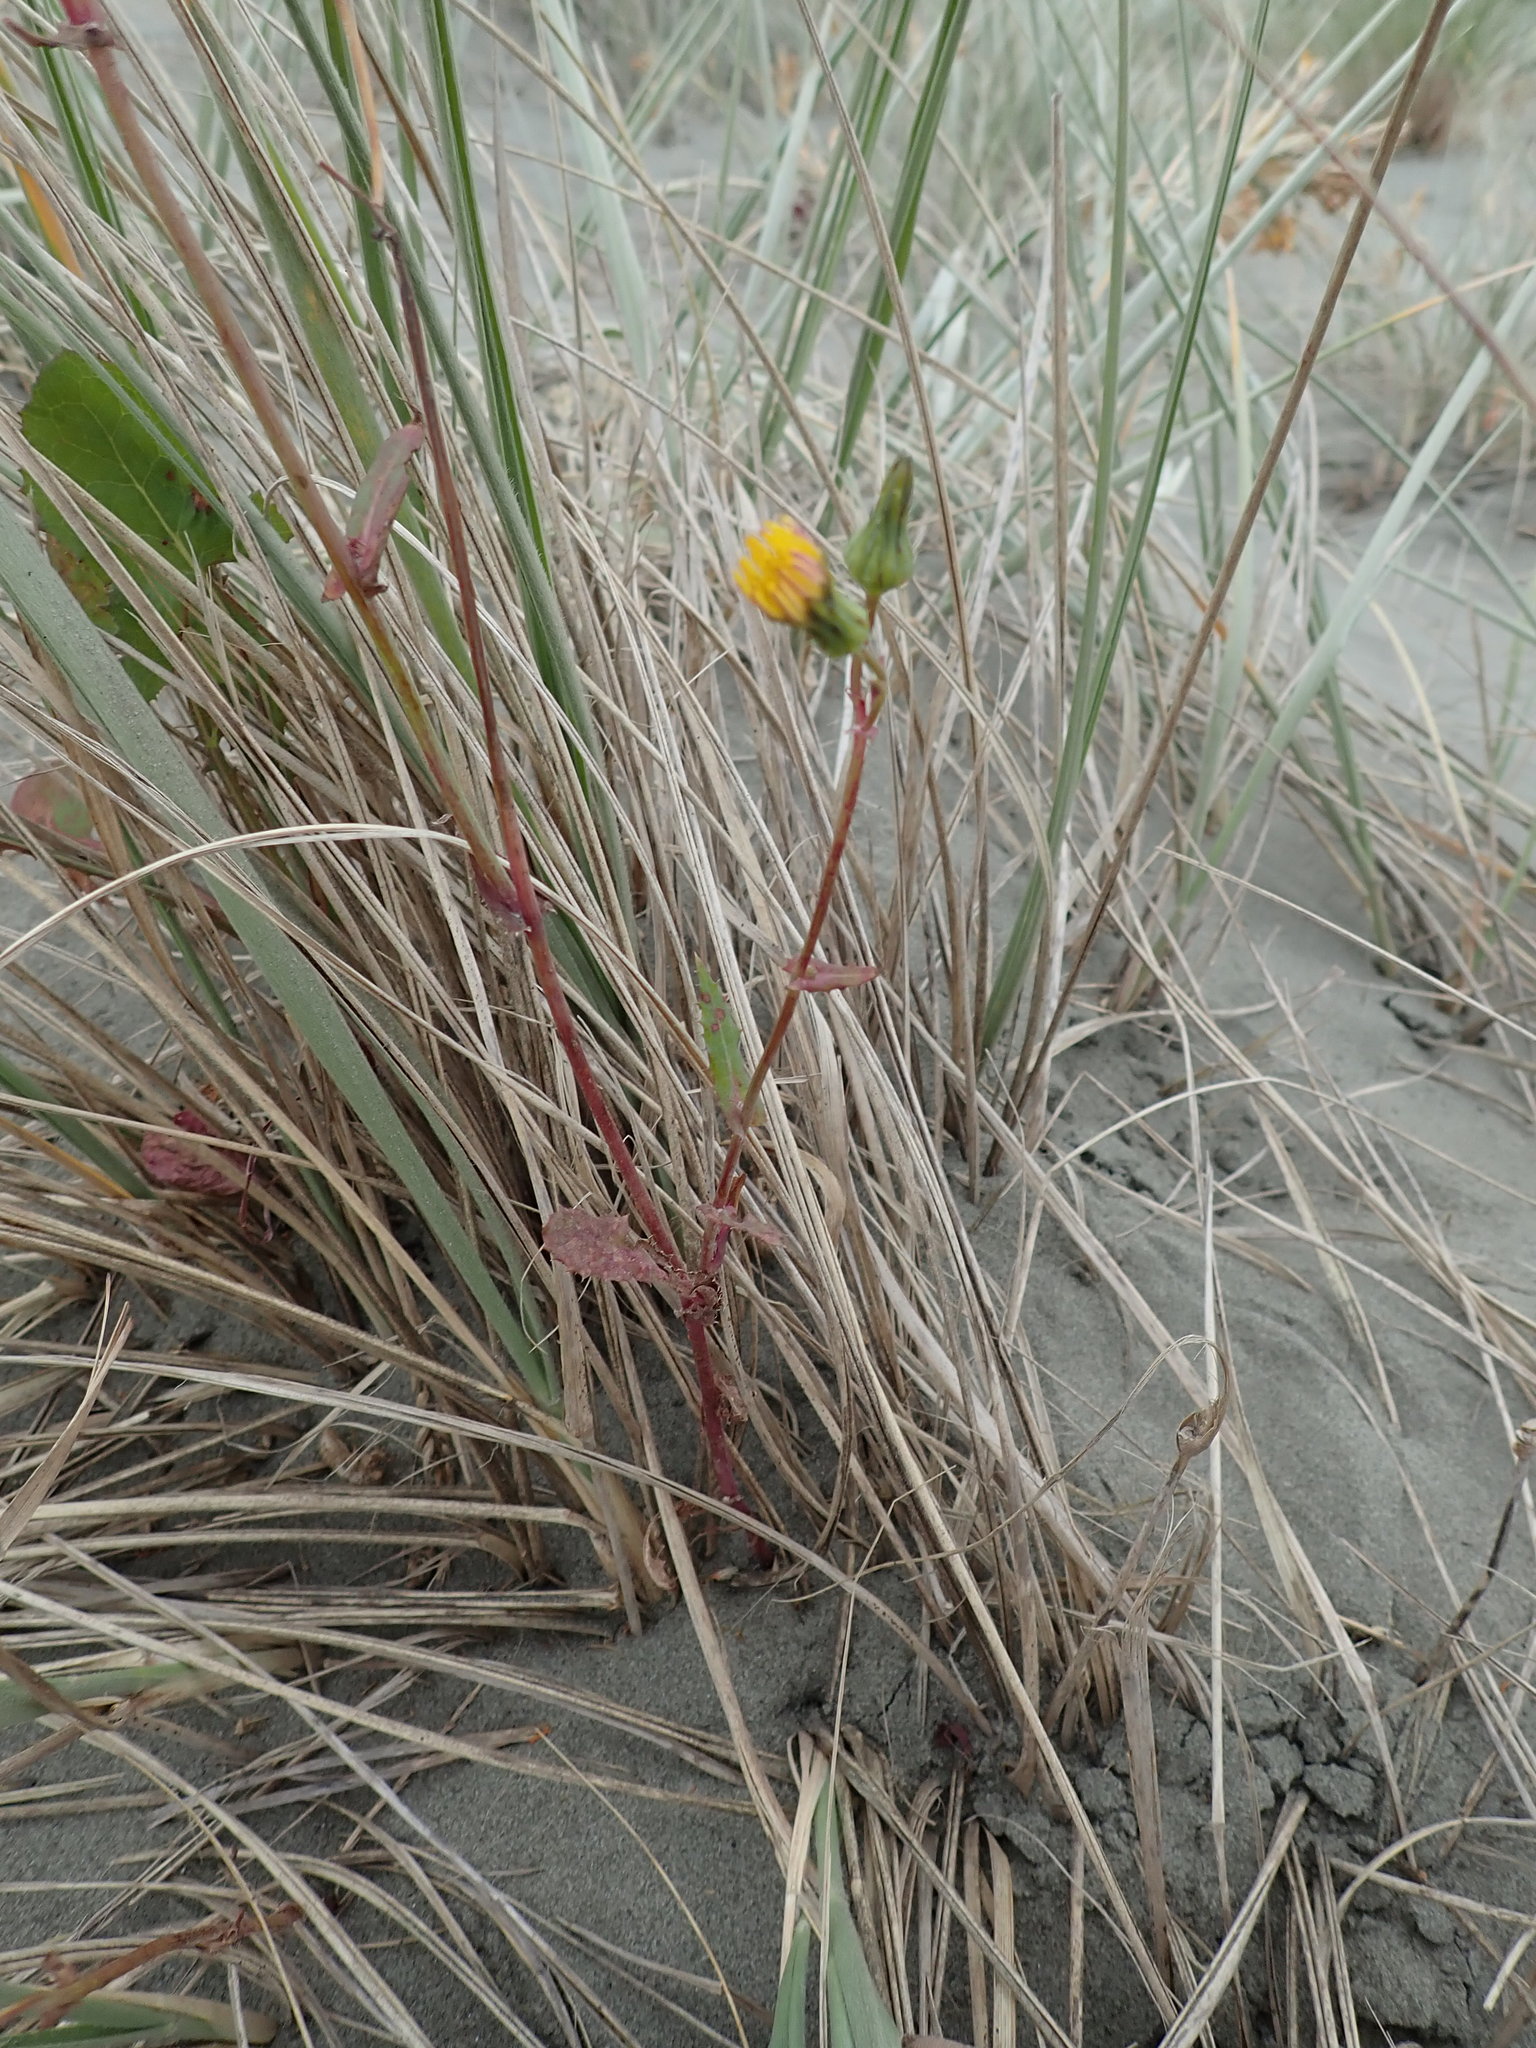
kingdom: Plantae
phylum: Tracheophyta
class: Magnoliopsida
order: Asterales
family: Asteraceae
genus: Sonchus
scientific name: Sonchus oleraceus
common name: Common sowthistle
